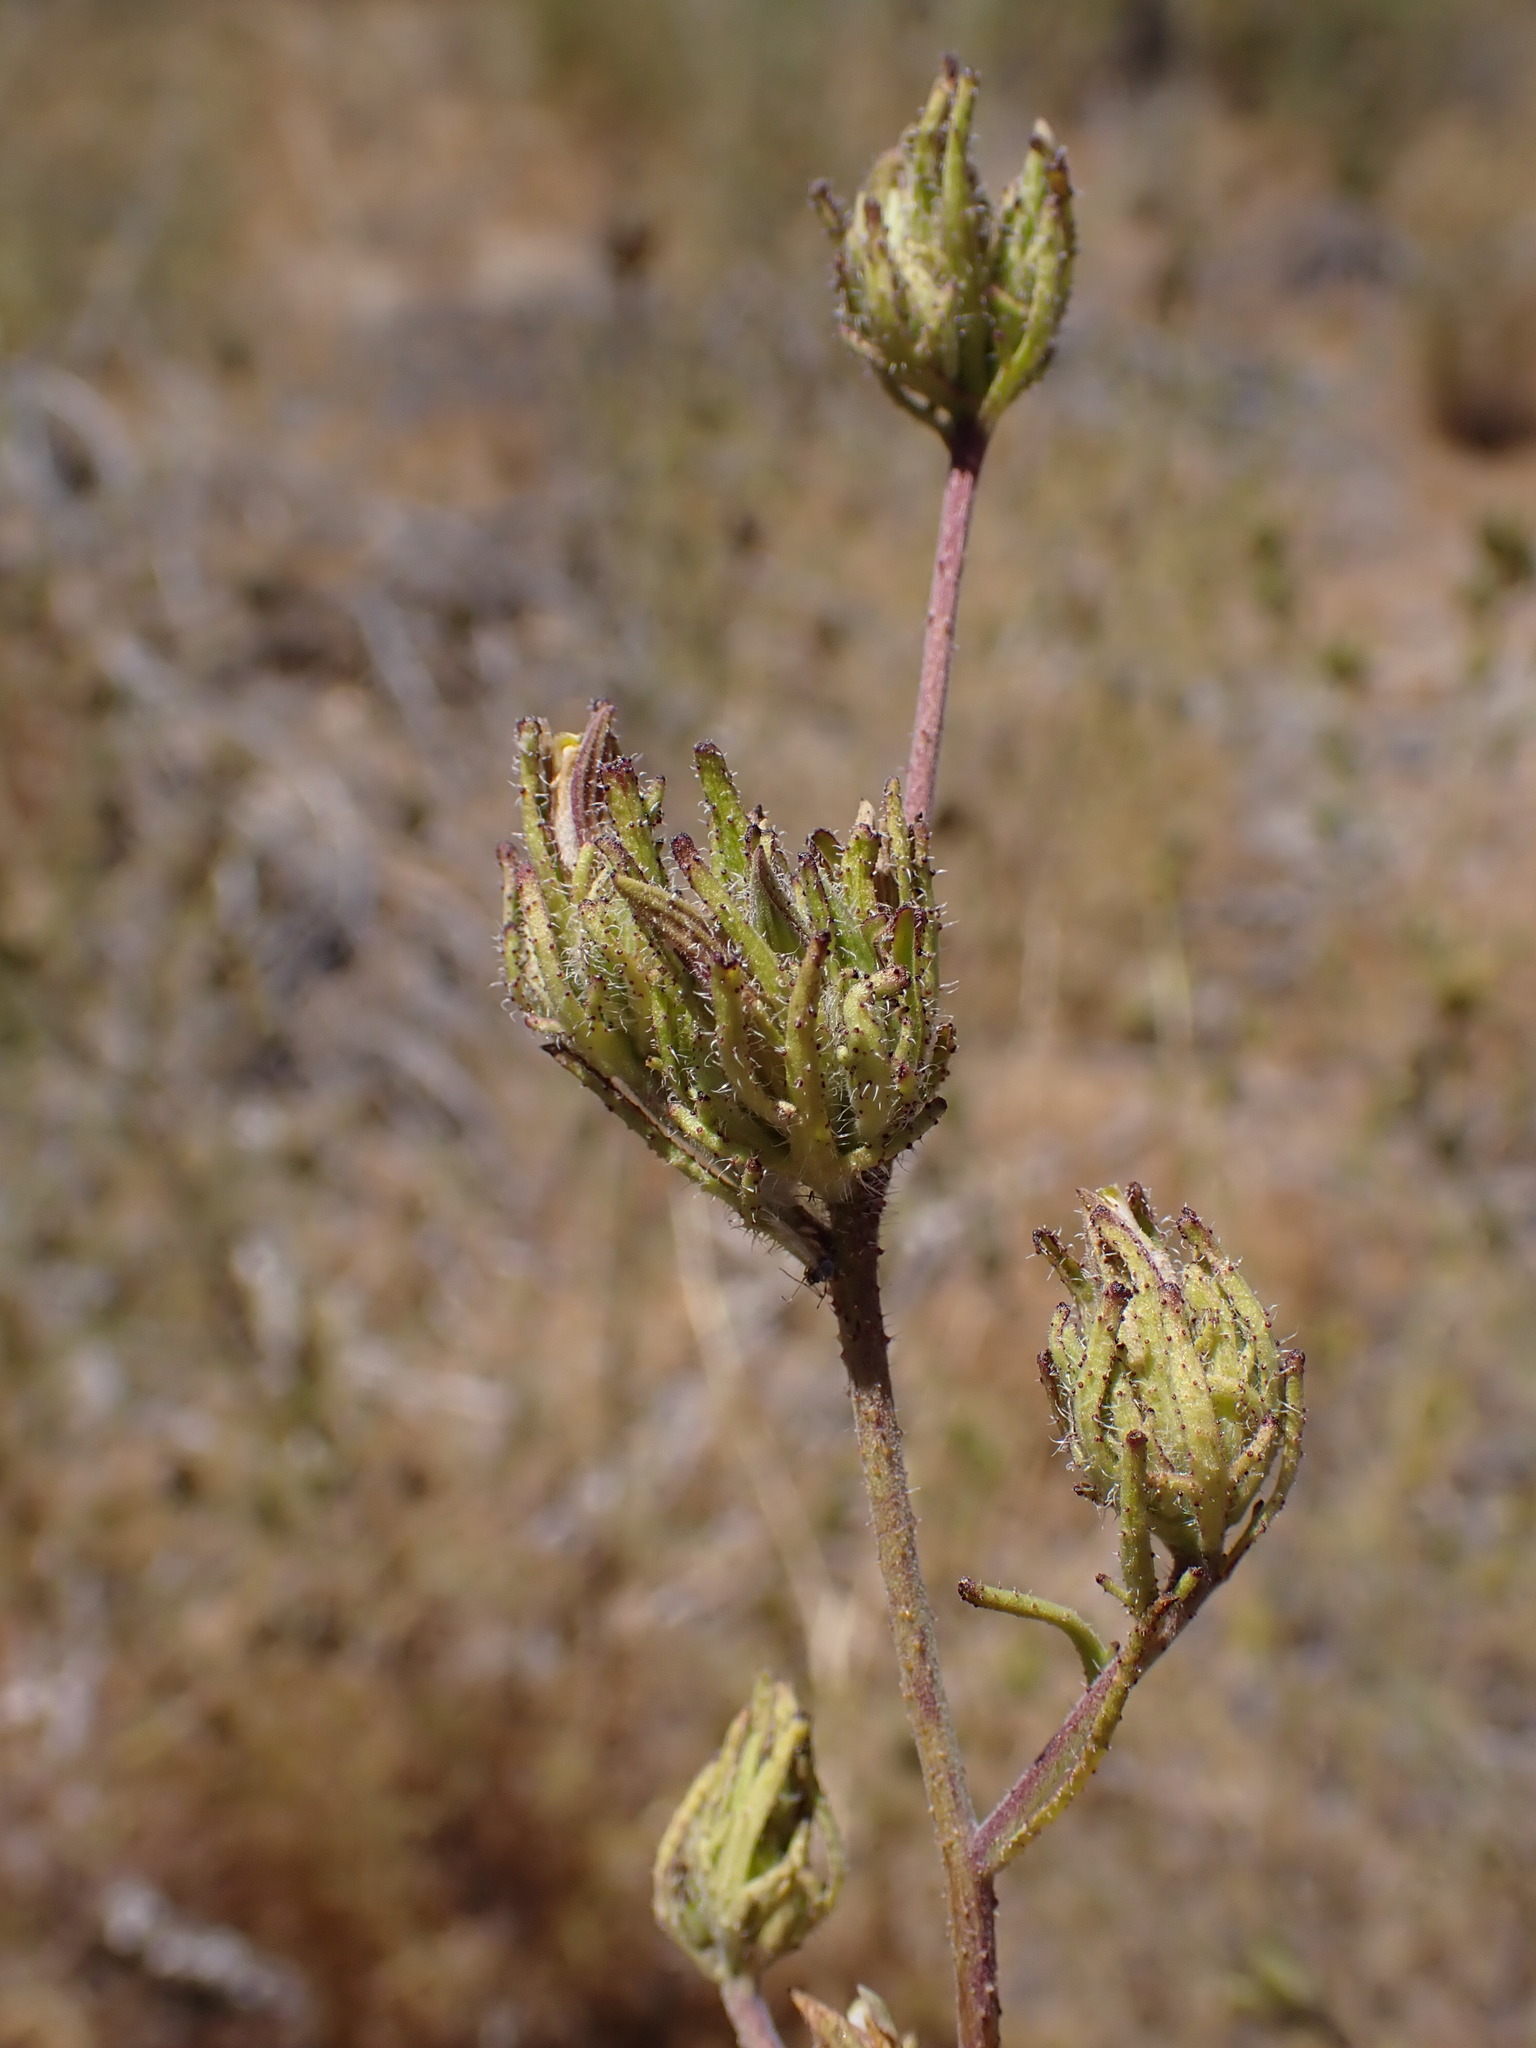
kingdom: Plantae
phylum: Tracheophyta
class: Magnoliopsida
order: Lamiales
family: Orobanchaceae
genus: Cordylanthus
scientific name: Cordylanthus rigidus
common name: Stiff-branch bird's-beak
